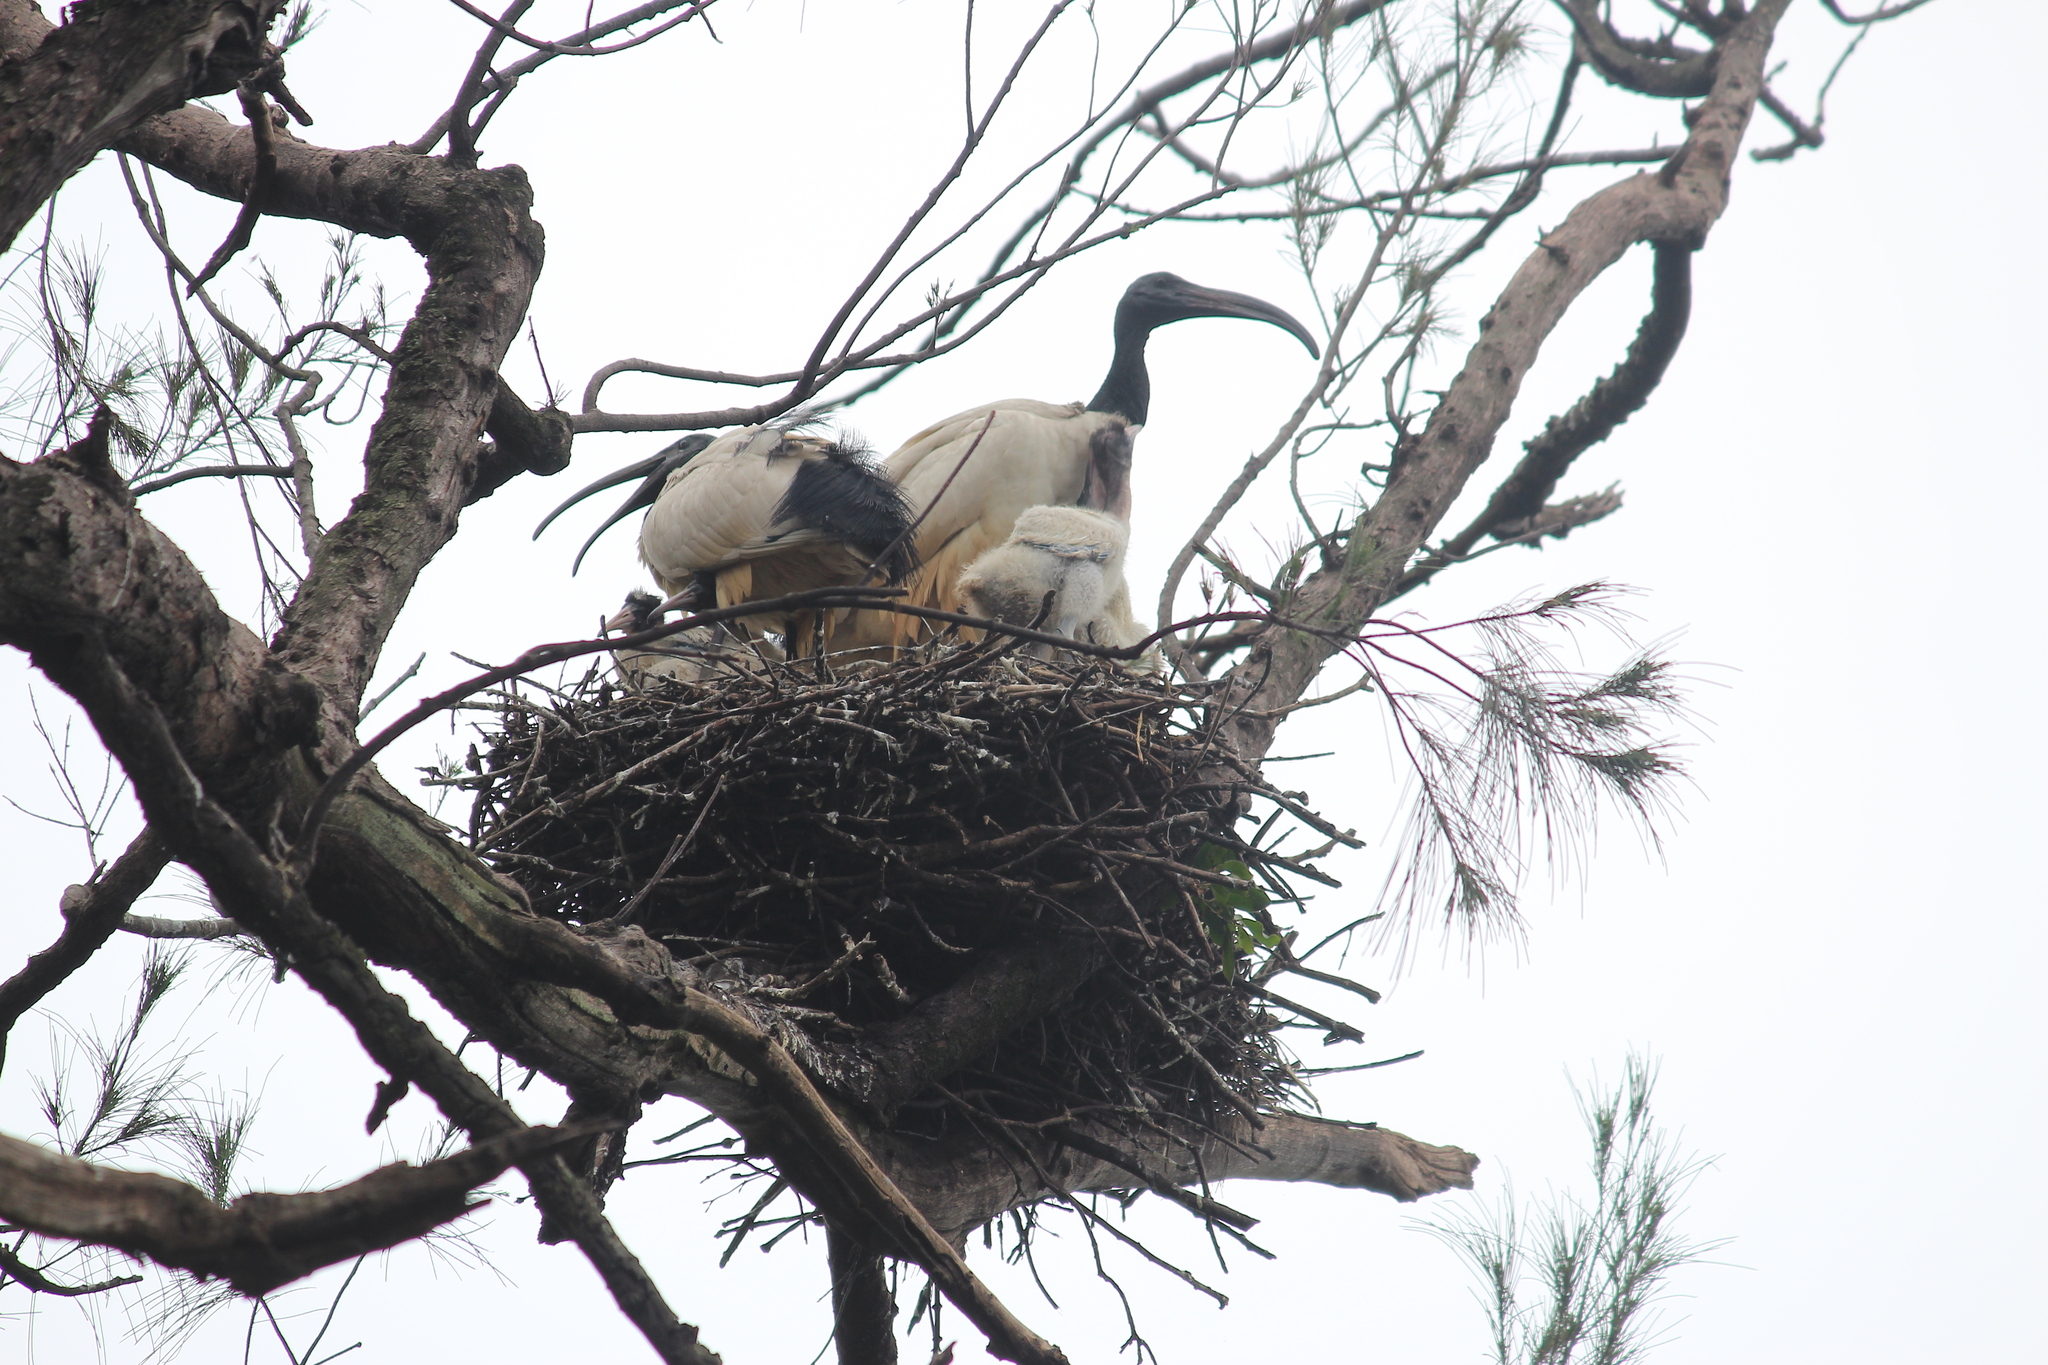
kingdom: Animalia
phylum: Chordata
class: Aves
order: Pelecaniformes
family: Threskiornithidae
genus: Threskiornis
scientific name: Threskiornis aethiopicus
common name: Sacred ibis
